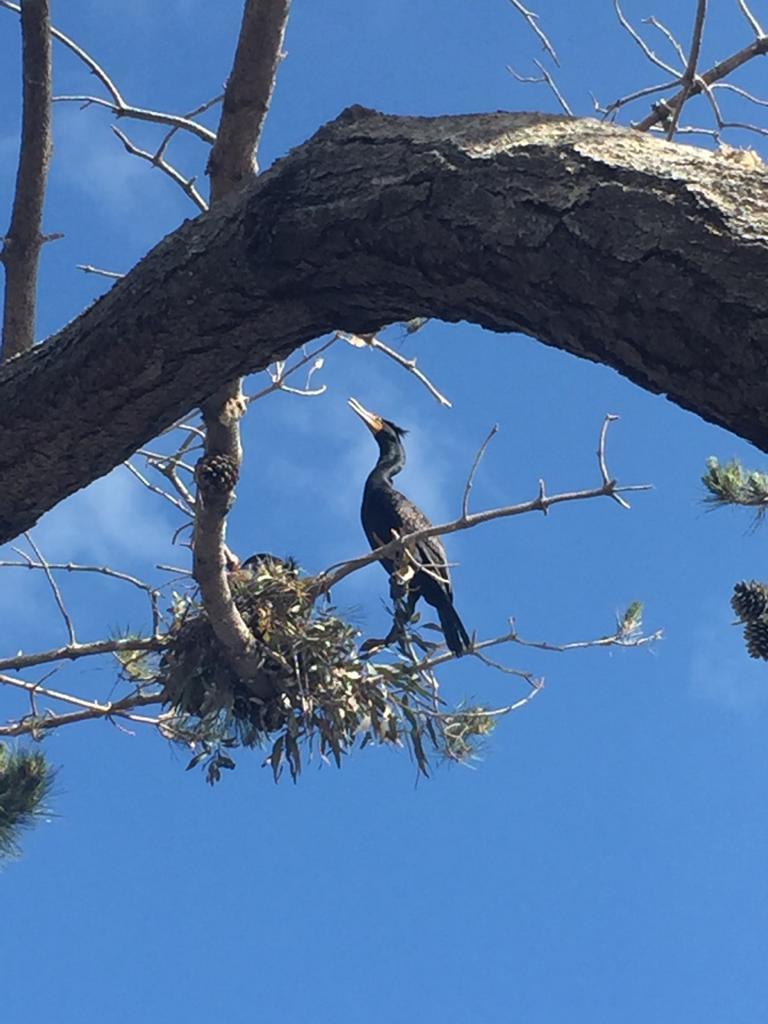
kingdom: Animalia
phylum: Chordata
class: Aves
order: Suliformes
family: Phalacrocoracidae
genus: Phalacrocorax
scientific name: Phalacrocorax auritus
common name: Double-crested cormorant
